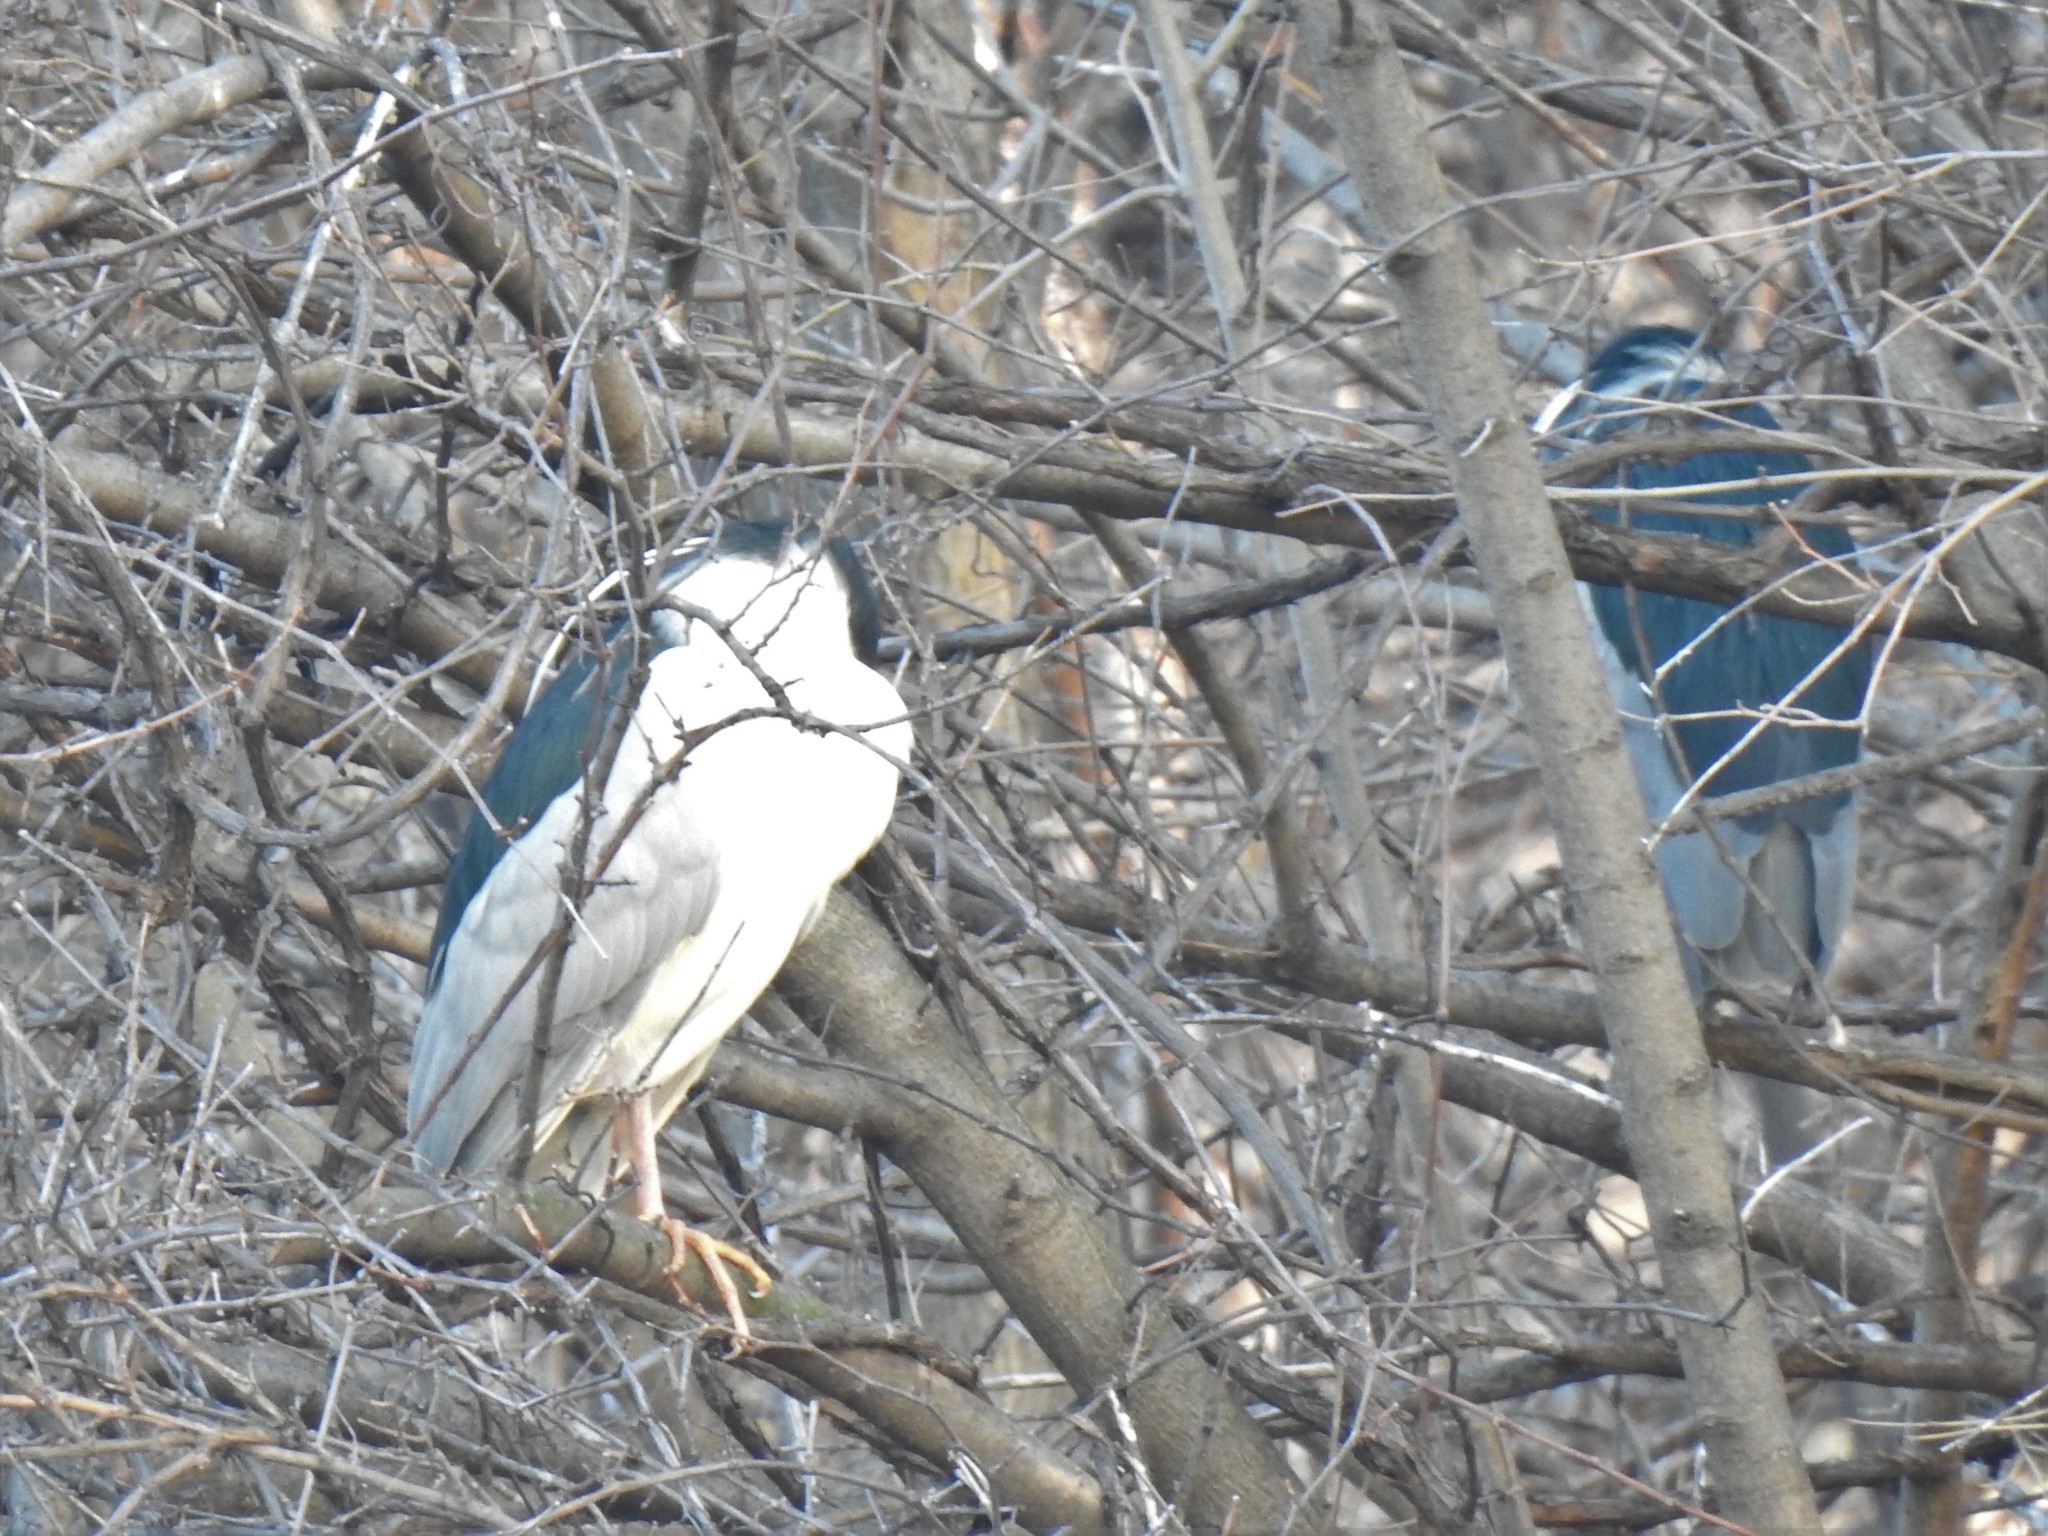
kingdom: Animalia
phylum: Chordata
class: Aves
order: Pelecaniformes
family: Ardeidae
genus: Nycticorax
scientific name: Nycticorax nycticorax
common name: Black-crowned night heron
